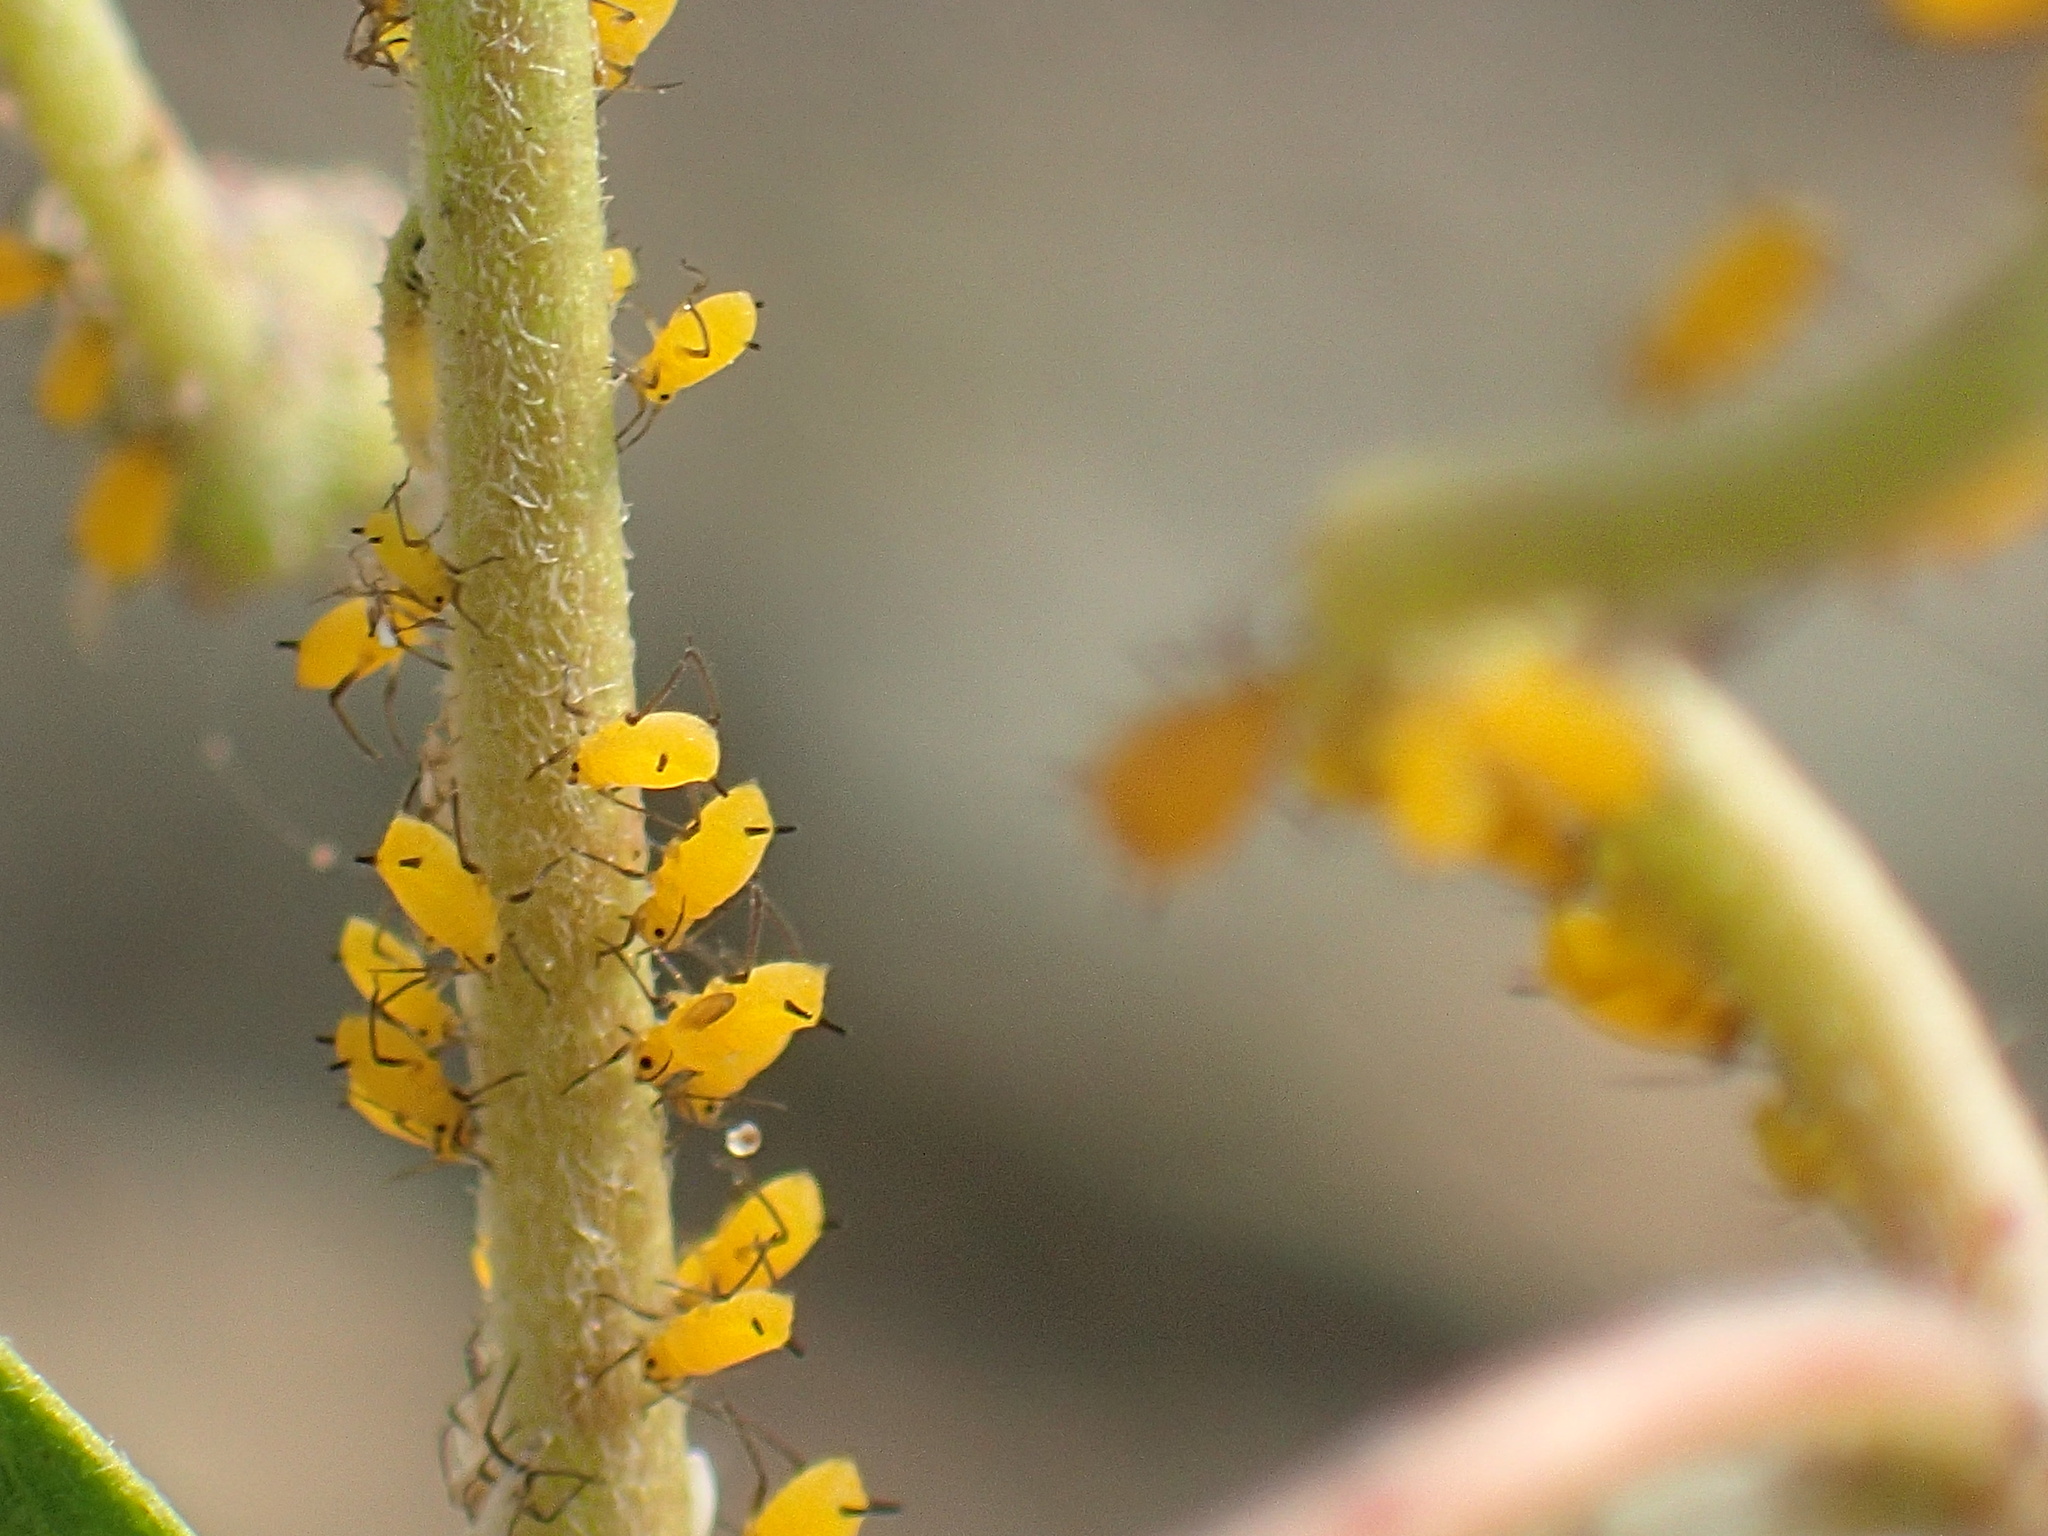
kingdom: Animalia
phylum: Arthropoda
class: Insecta
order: Hemiptera
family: Aphididae
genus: Aphis
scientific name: Aphis nerii
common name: Oleander aphid
